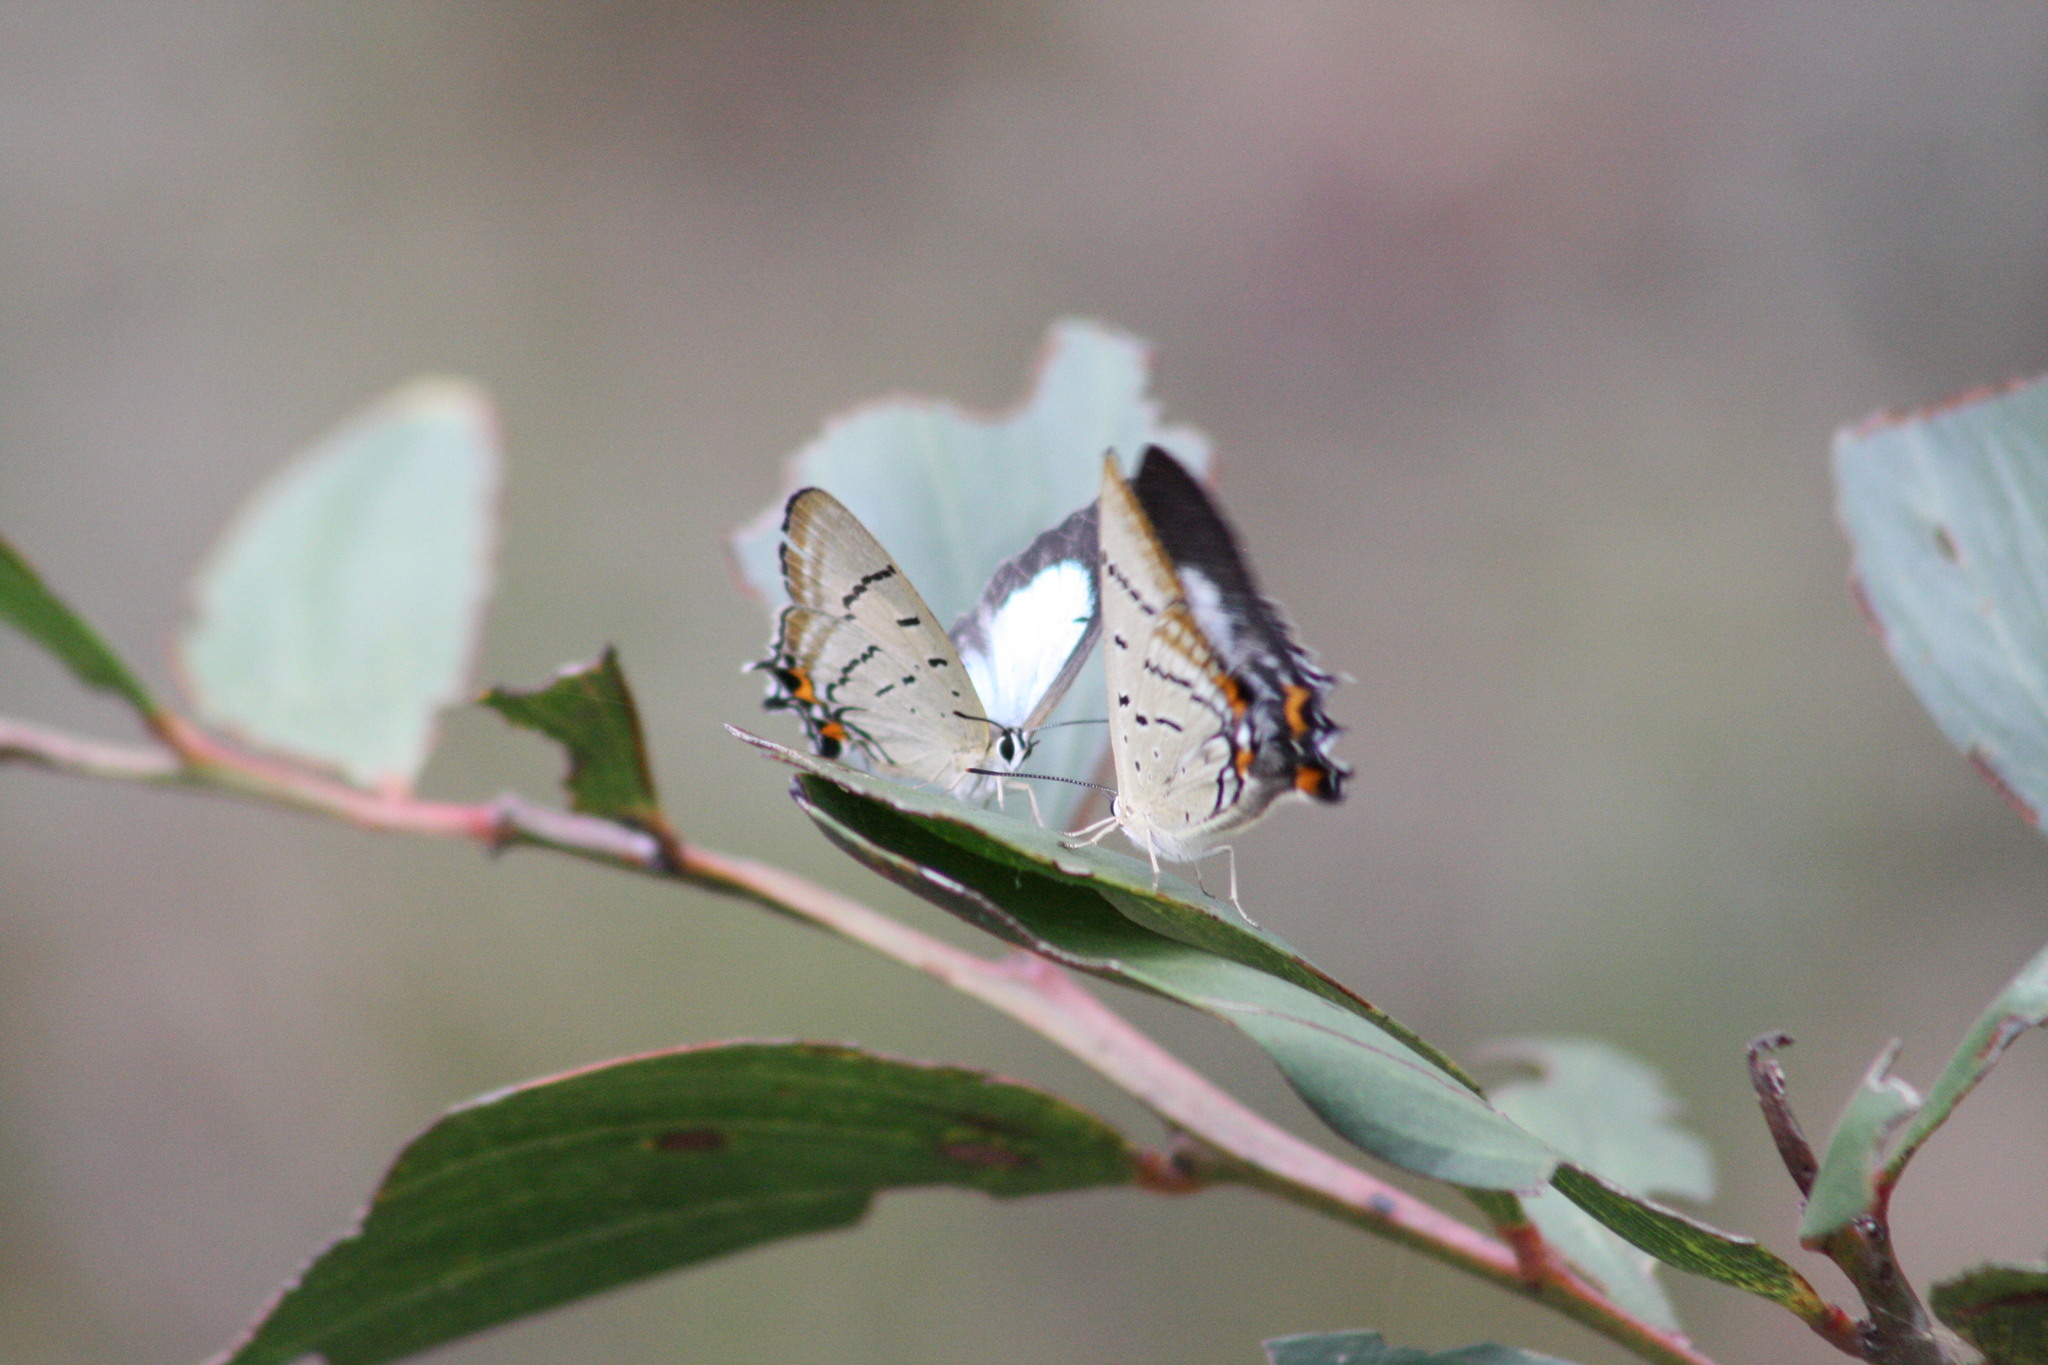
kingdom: Animalia
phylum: Arthropoda
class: Insecta
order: Lepidoptera
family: Lycaenidae
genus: Jalmenus
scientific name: Jalmenus evagoras
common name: Common imperial blue
